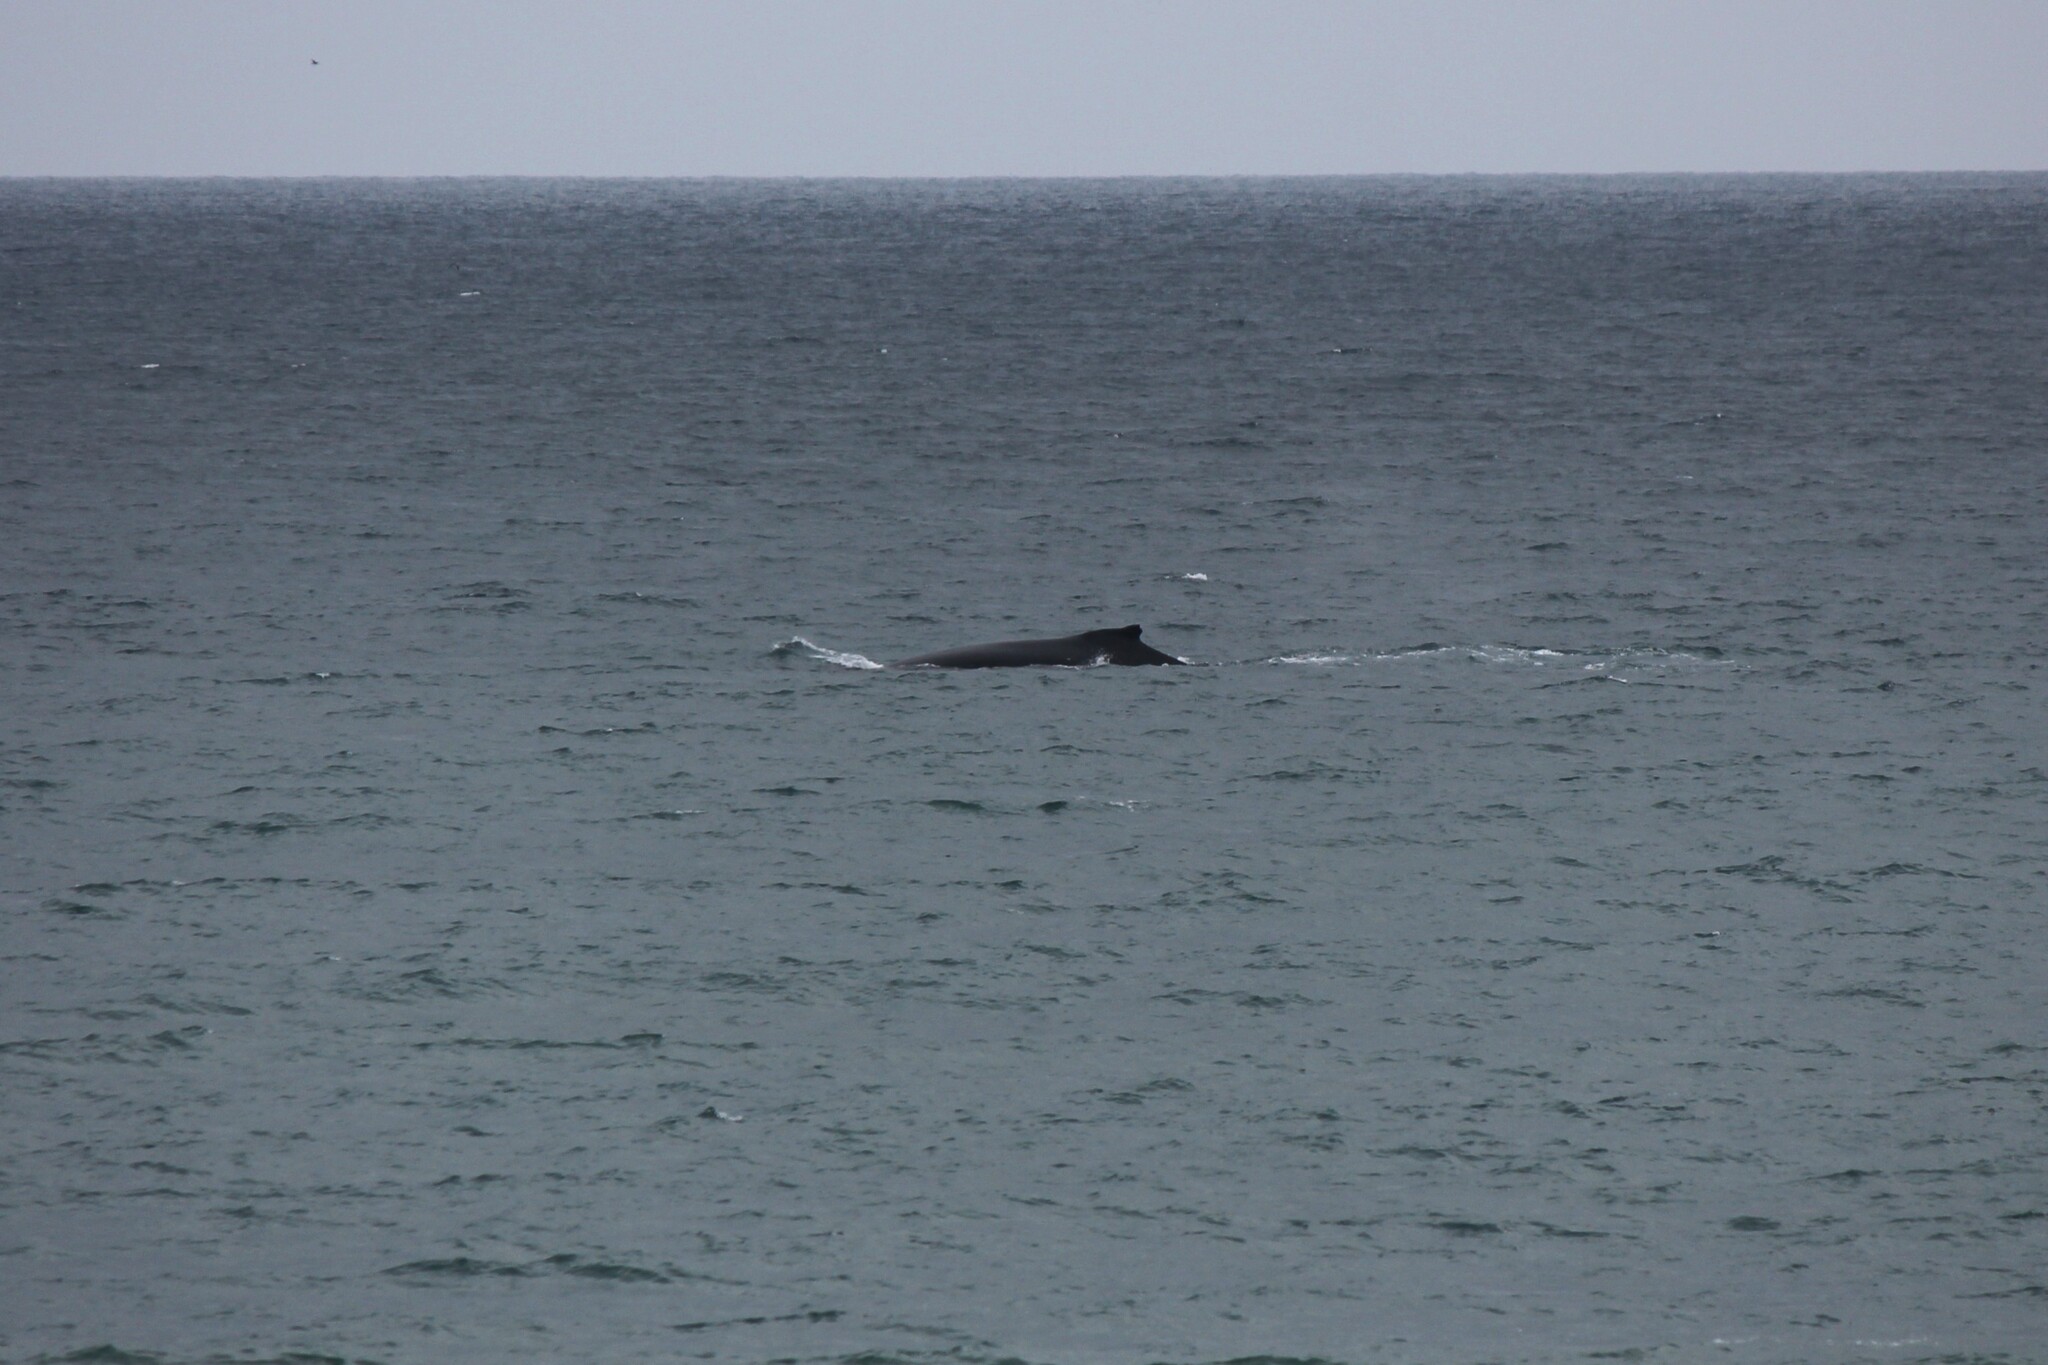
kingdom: Animalia
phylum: Chordata
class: Mammalia
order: Cetacea
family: Balaenopteridae
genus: Megaptera
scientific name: Megaptera novaeangliae
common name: Humpback whale
